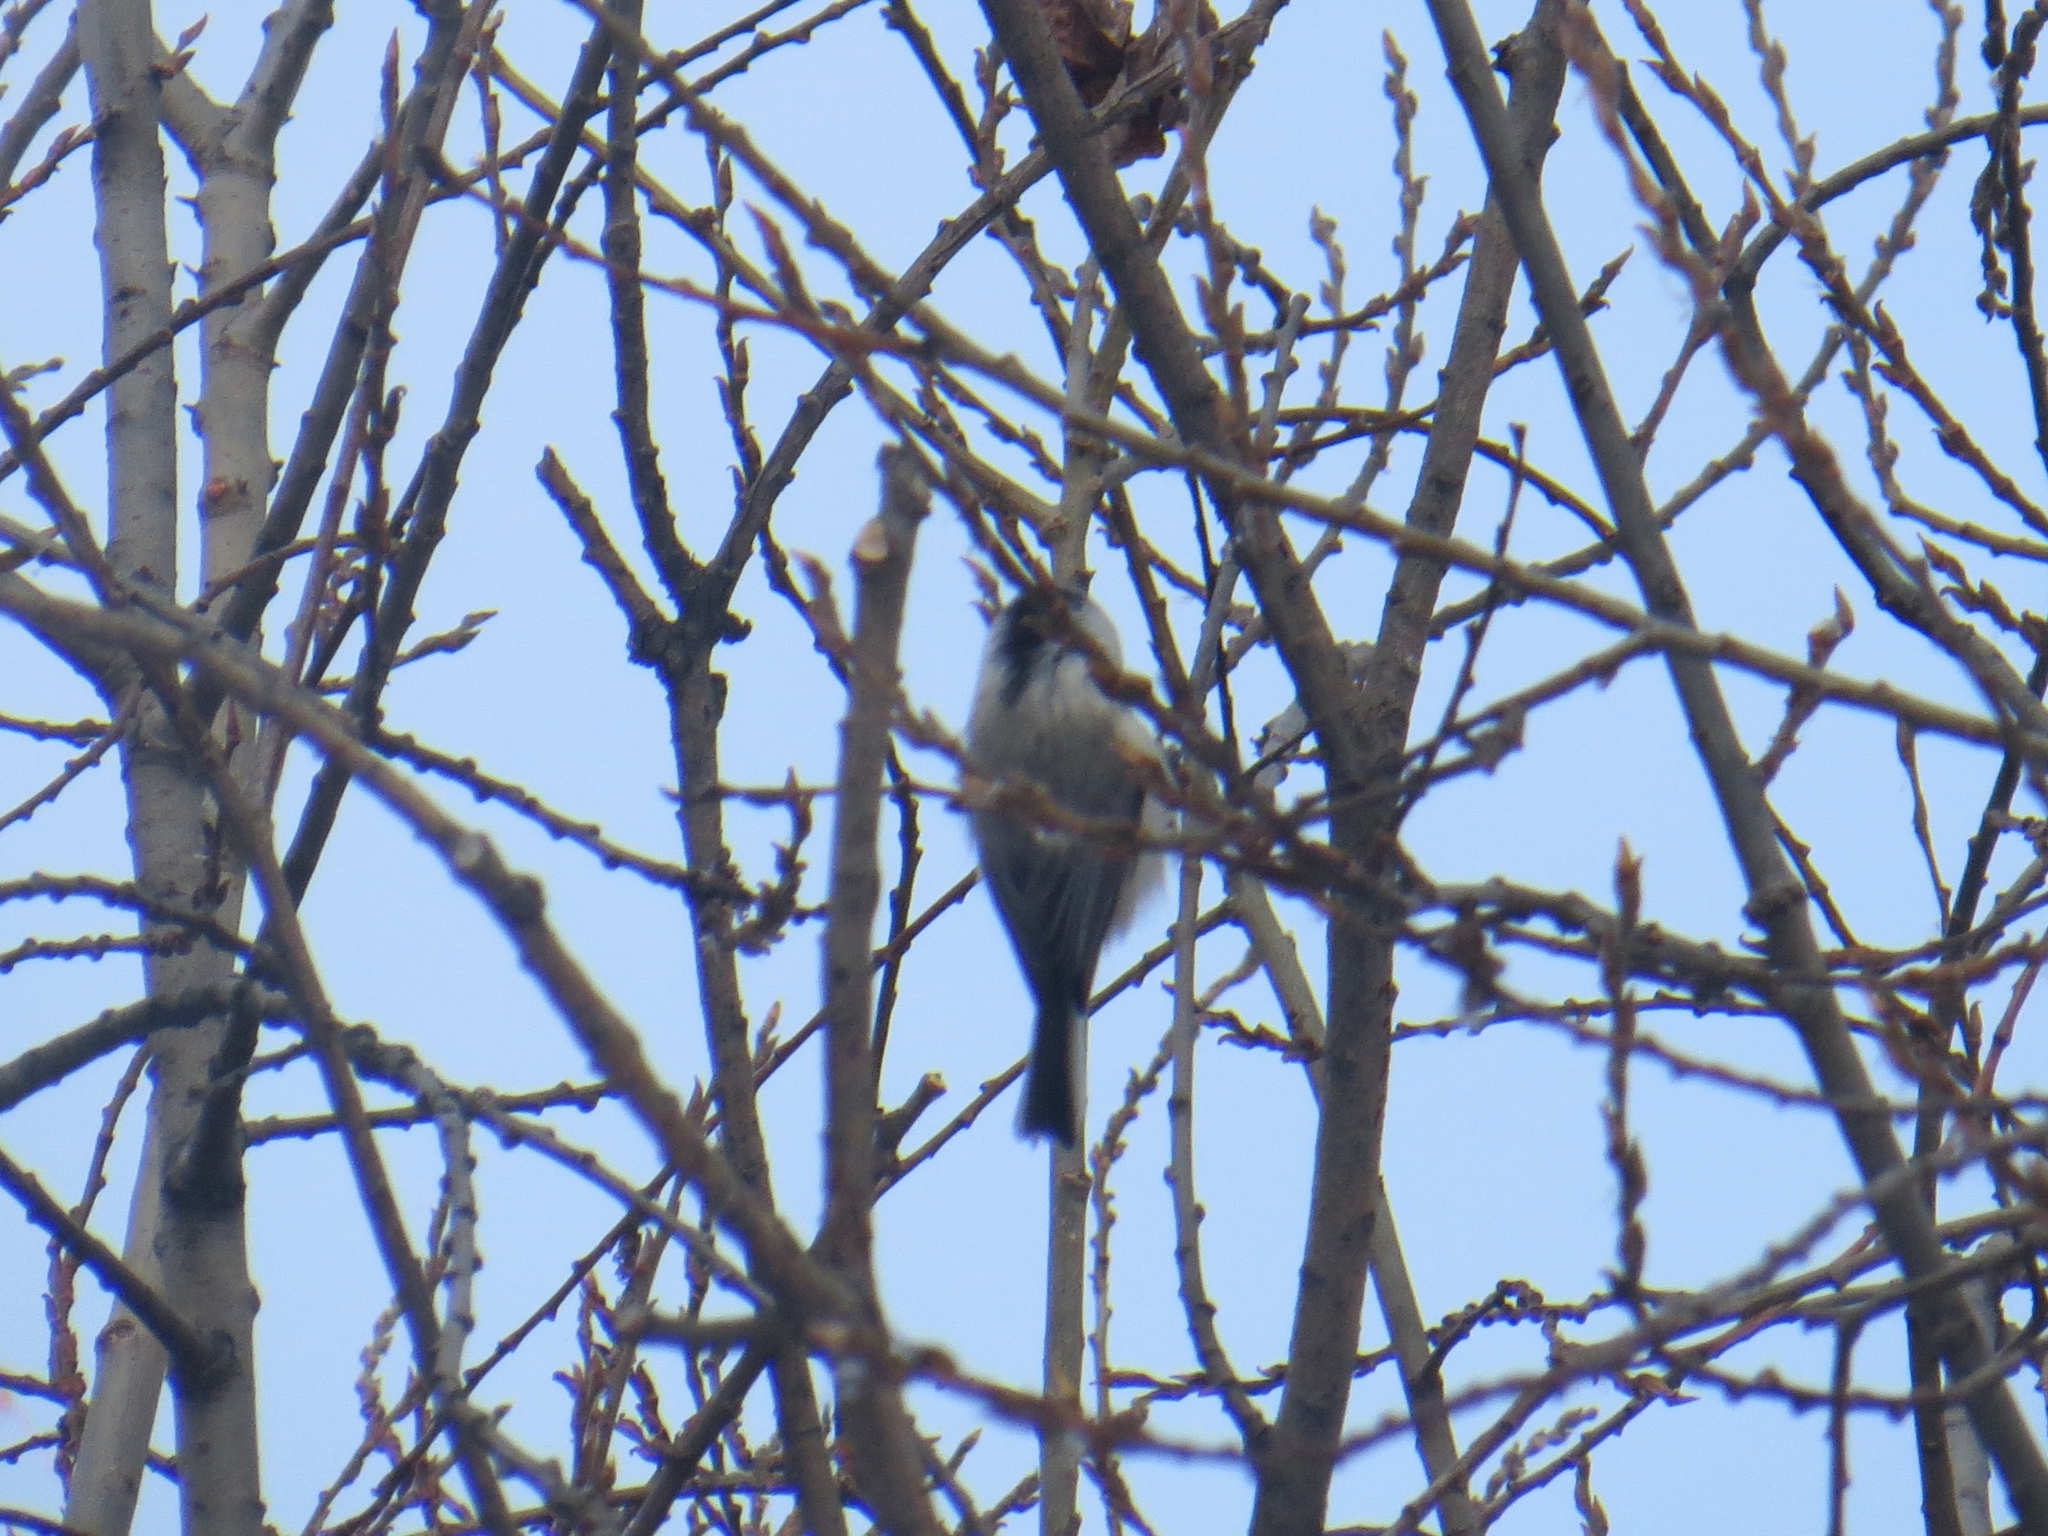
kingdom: Animalia
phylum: Chordata
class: Aves
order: Passeriformes
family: Paridae
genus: Poecile
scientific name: Poecile montanus
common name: Willow tit
